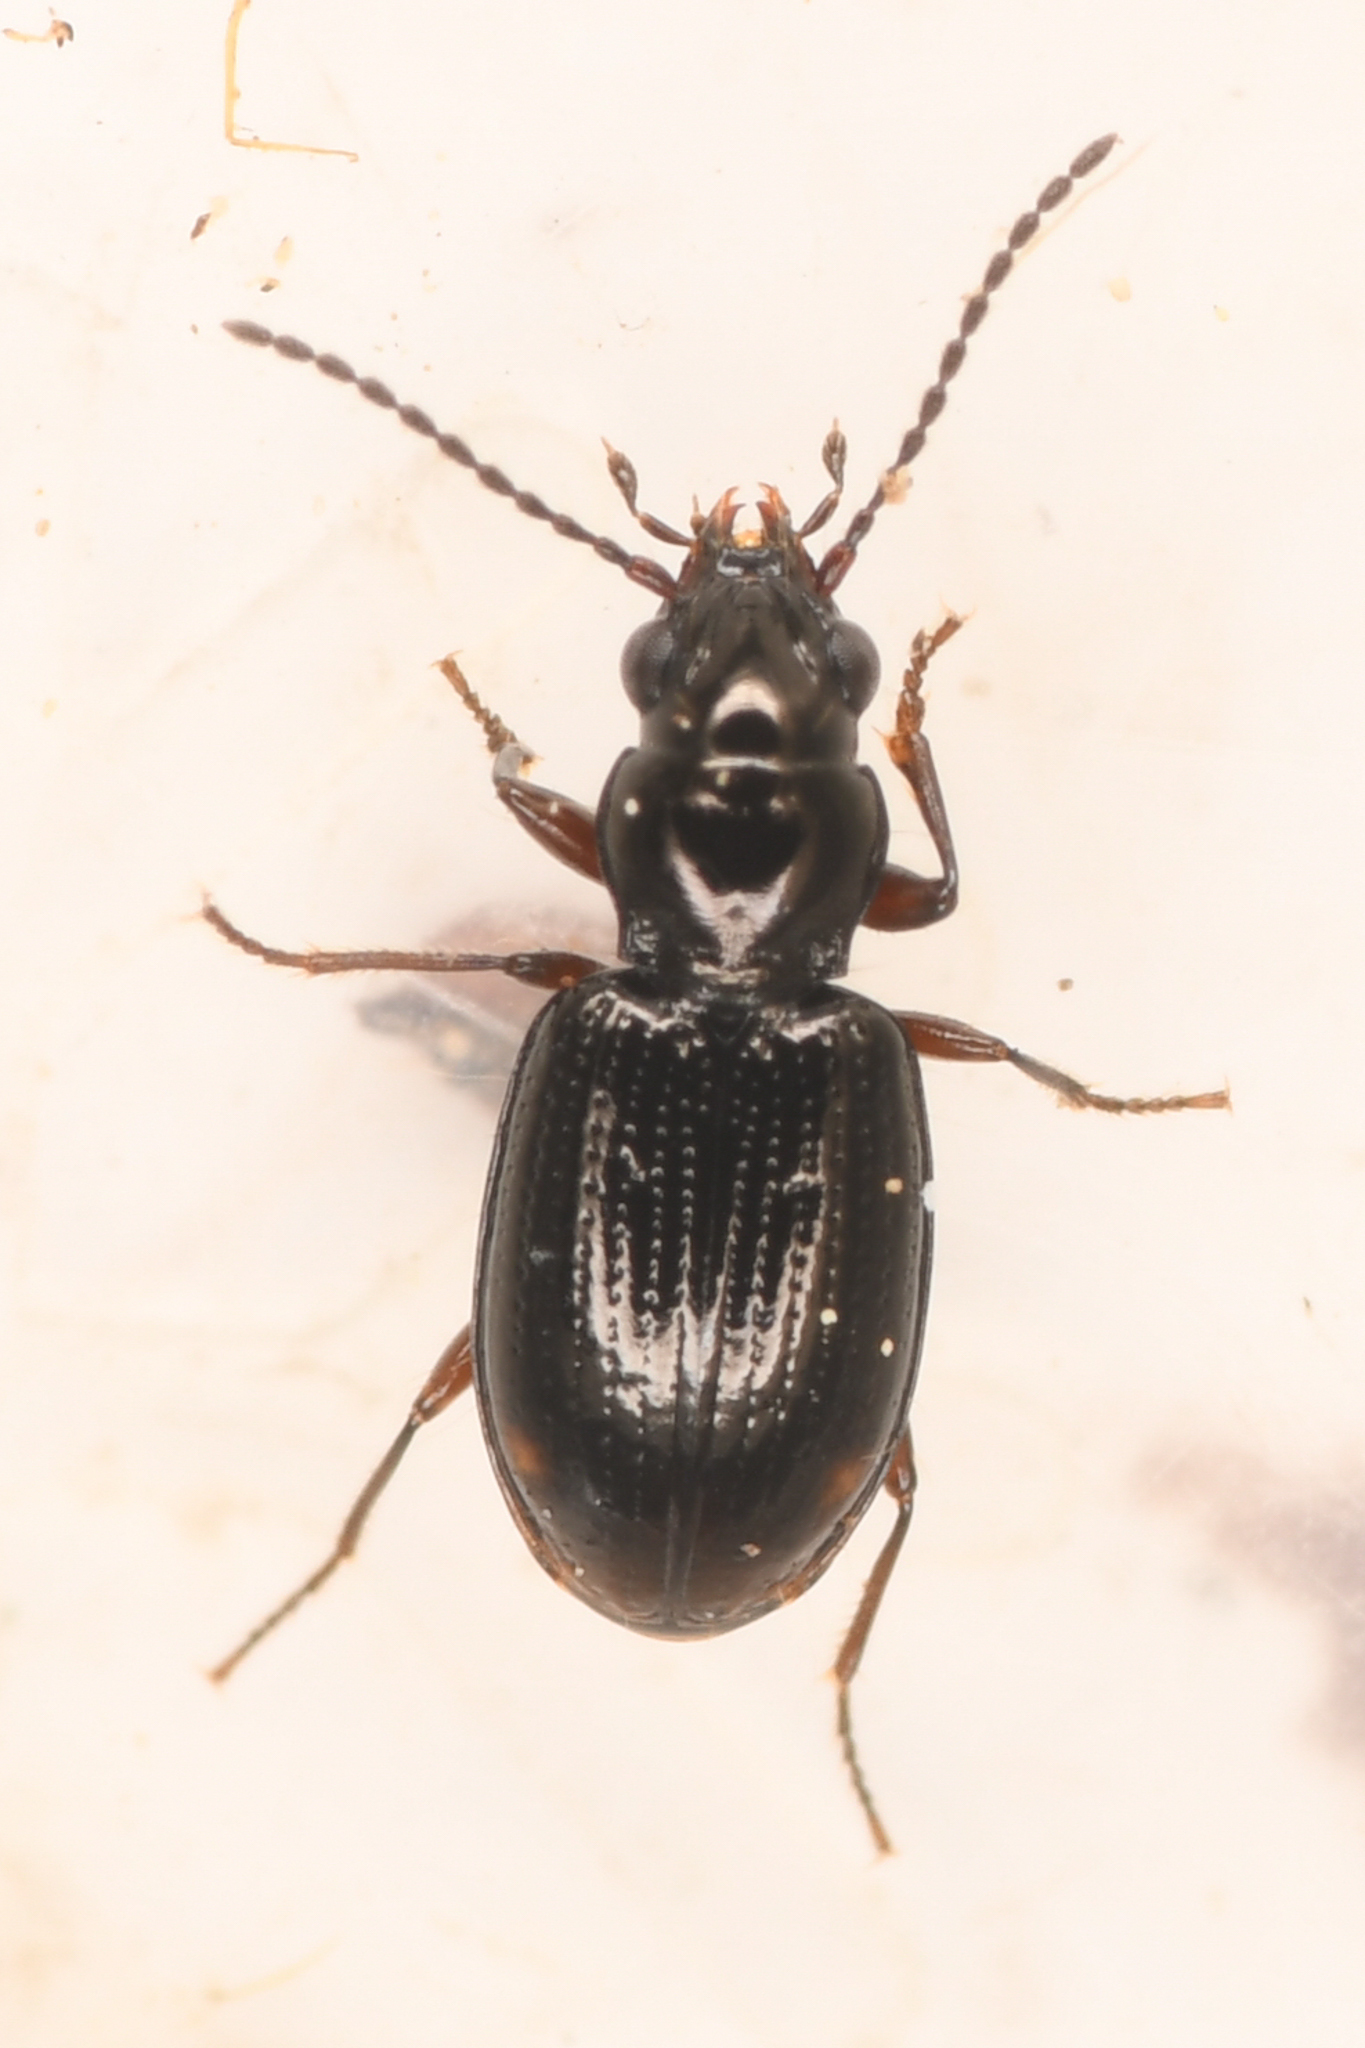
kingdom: Animalia
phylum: Arthropoda
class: Insecta
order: Coleoptera
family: Carabidae
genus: Bembidion
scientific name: Bembidion fortestriatum
